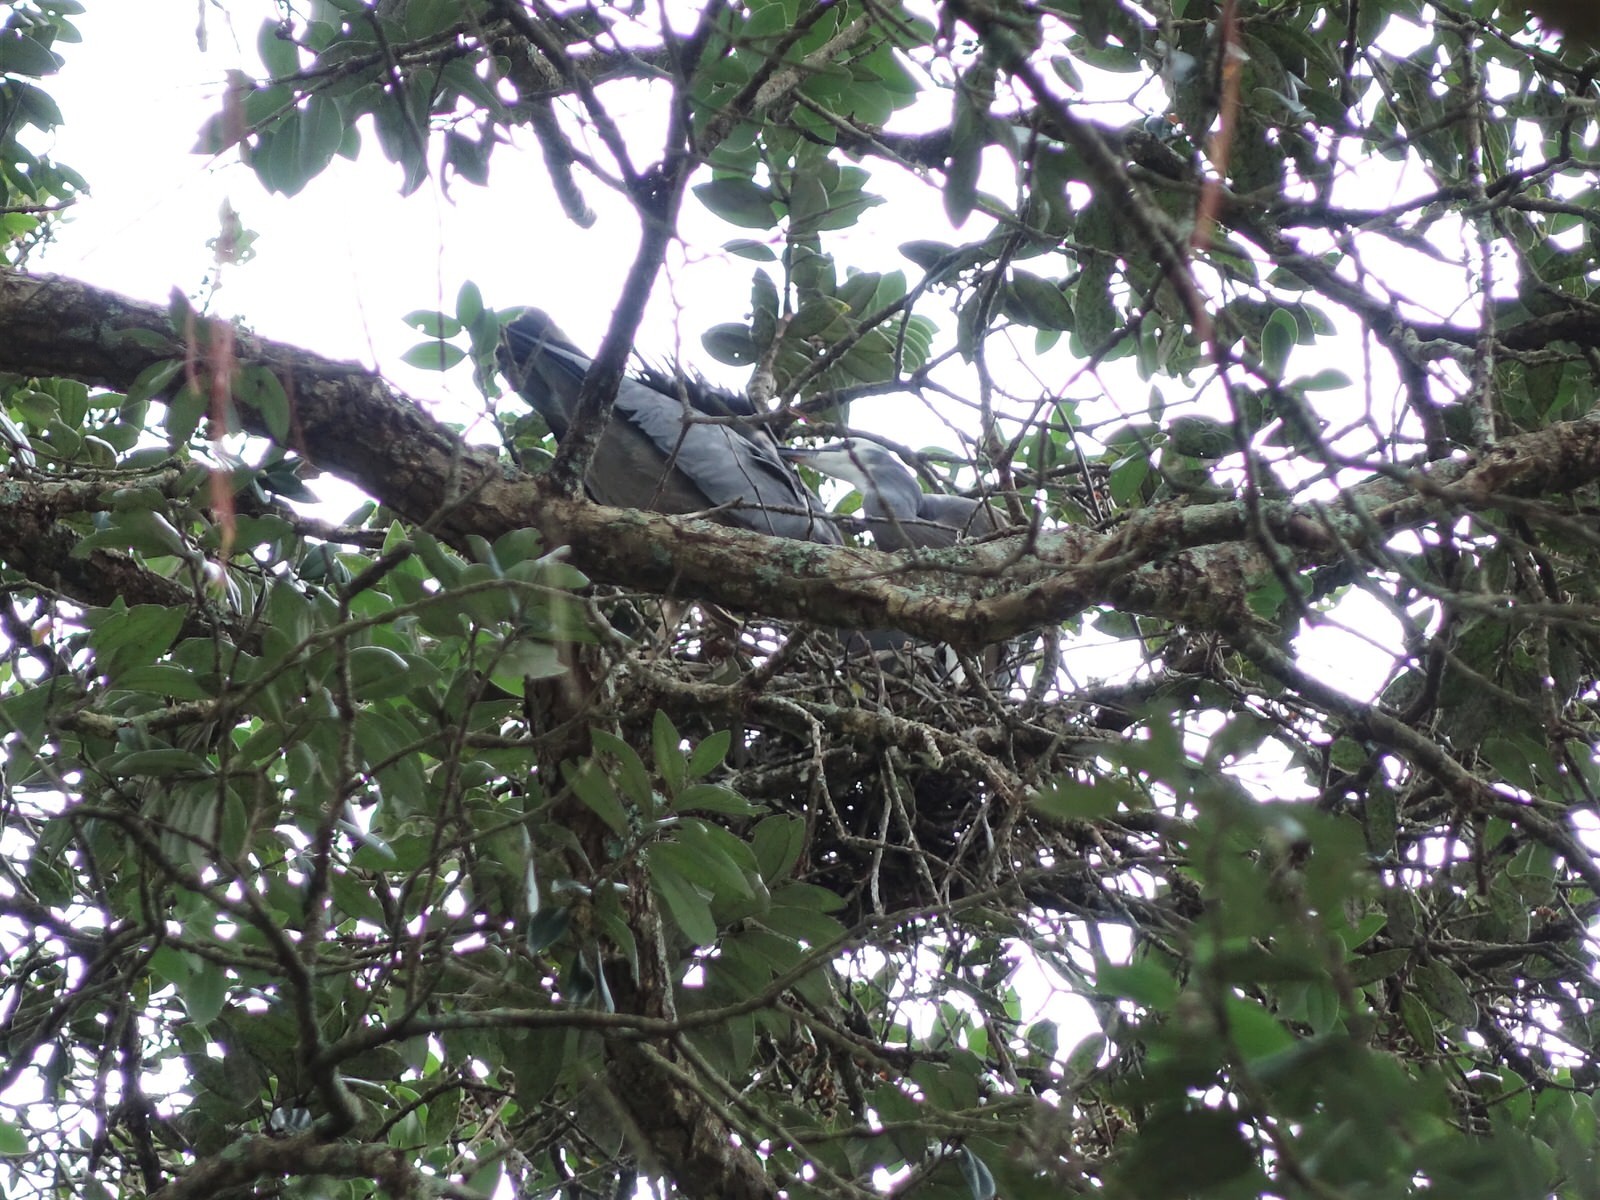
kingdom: Animalia
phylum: Chordata
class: Aves
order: Pelecaniformes
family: Ardeidae
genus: Egretta
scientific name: Egretta novaehollandiae
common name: White-faced heron
